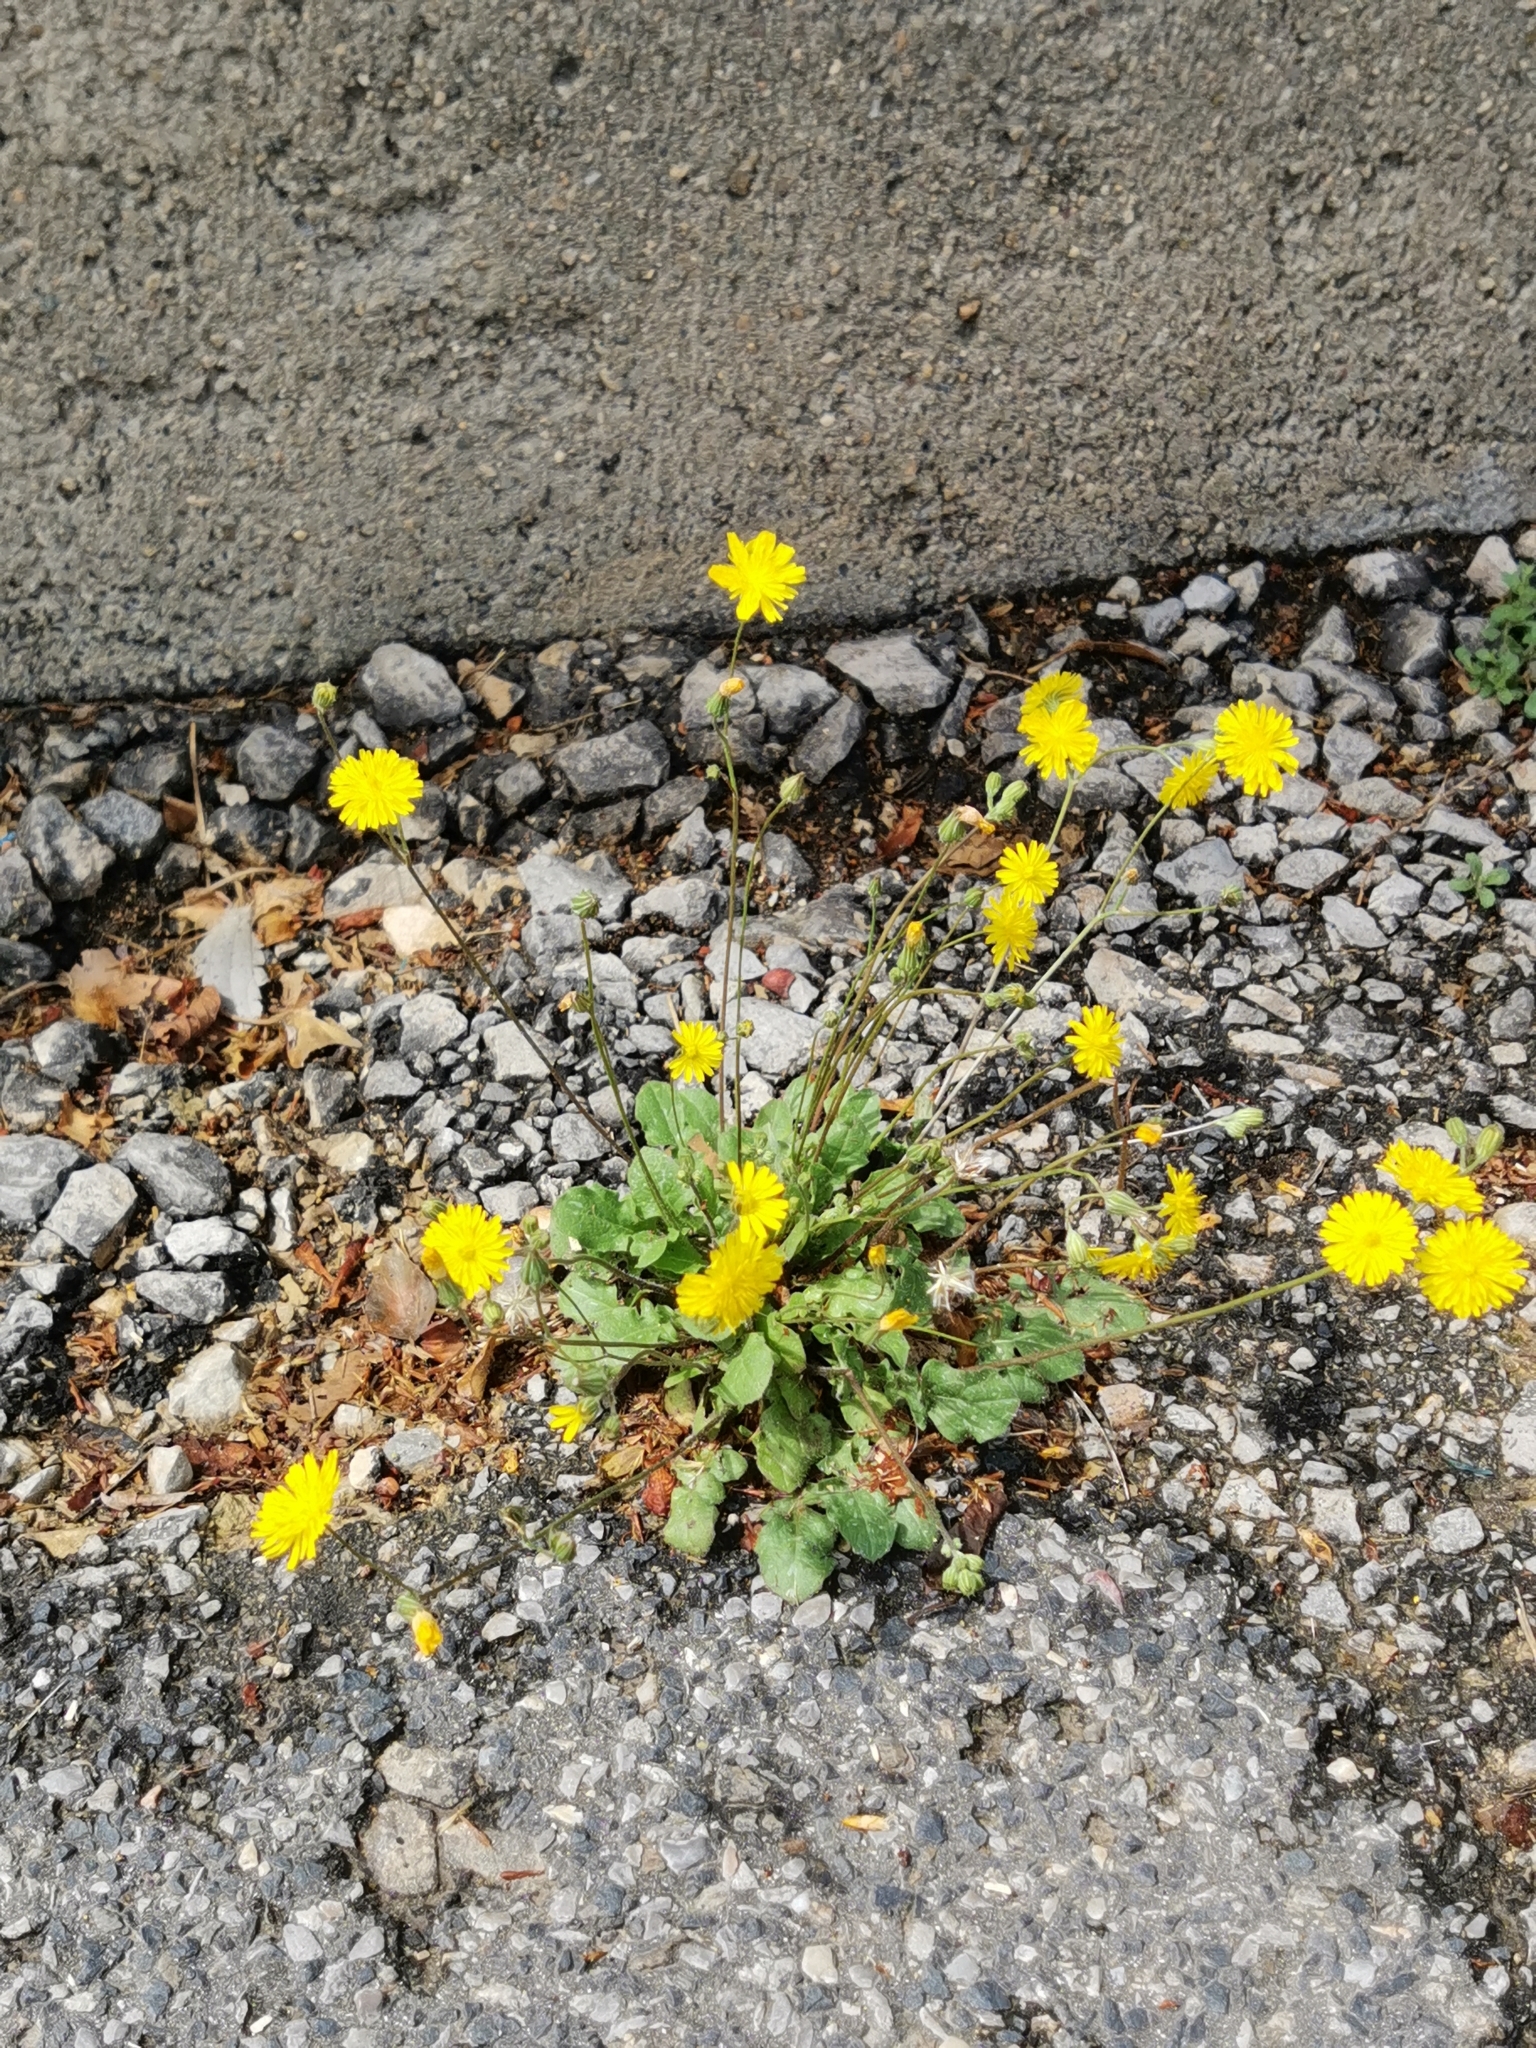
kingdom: Plantae
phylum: Tracheophyta
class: Magnoliopsida
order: Asterales
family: Asteraceae
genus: Crepis
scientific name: Crepis sancta
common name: Hawk's-beard
